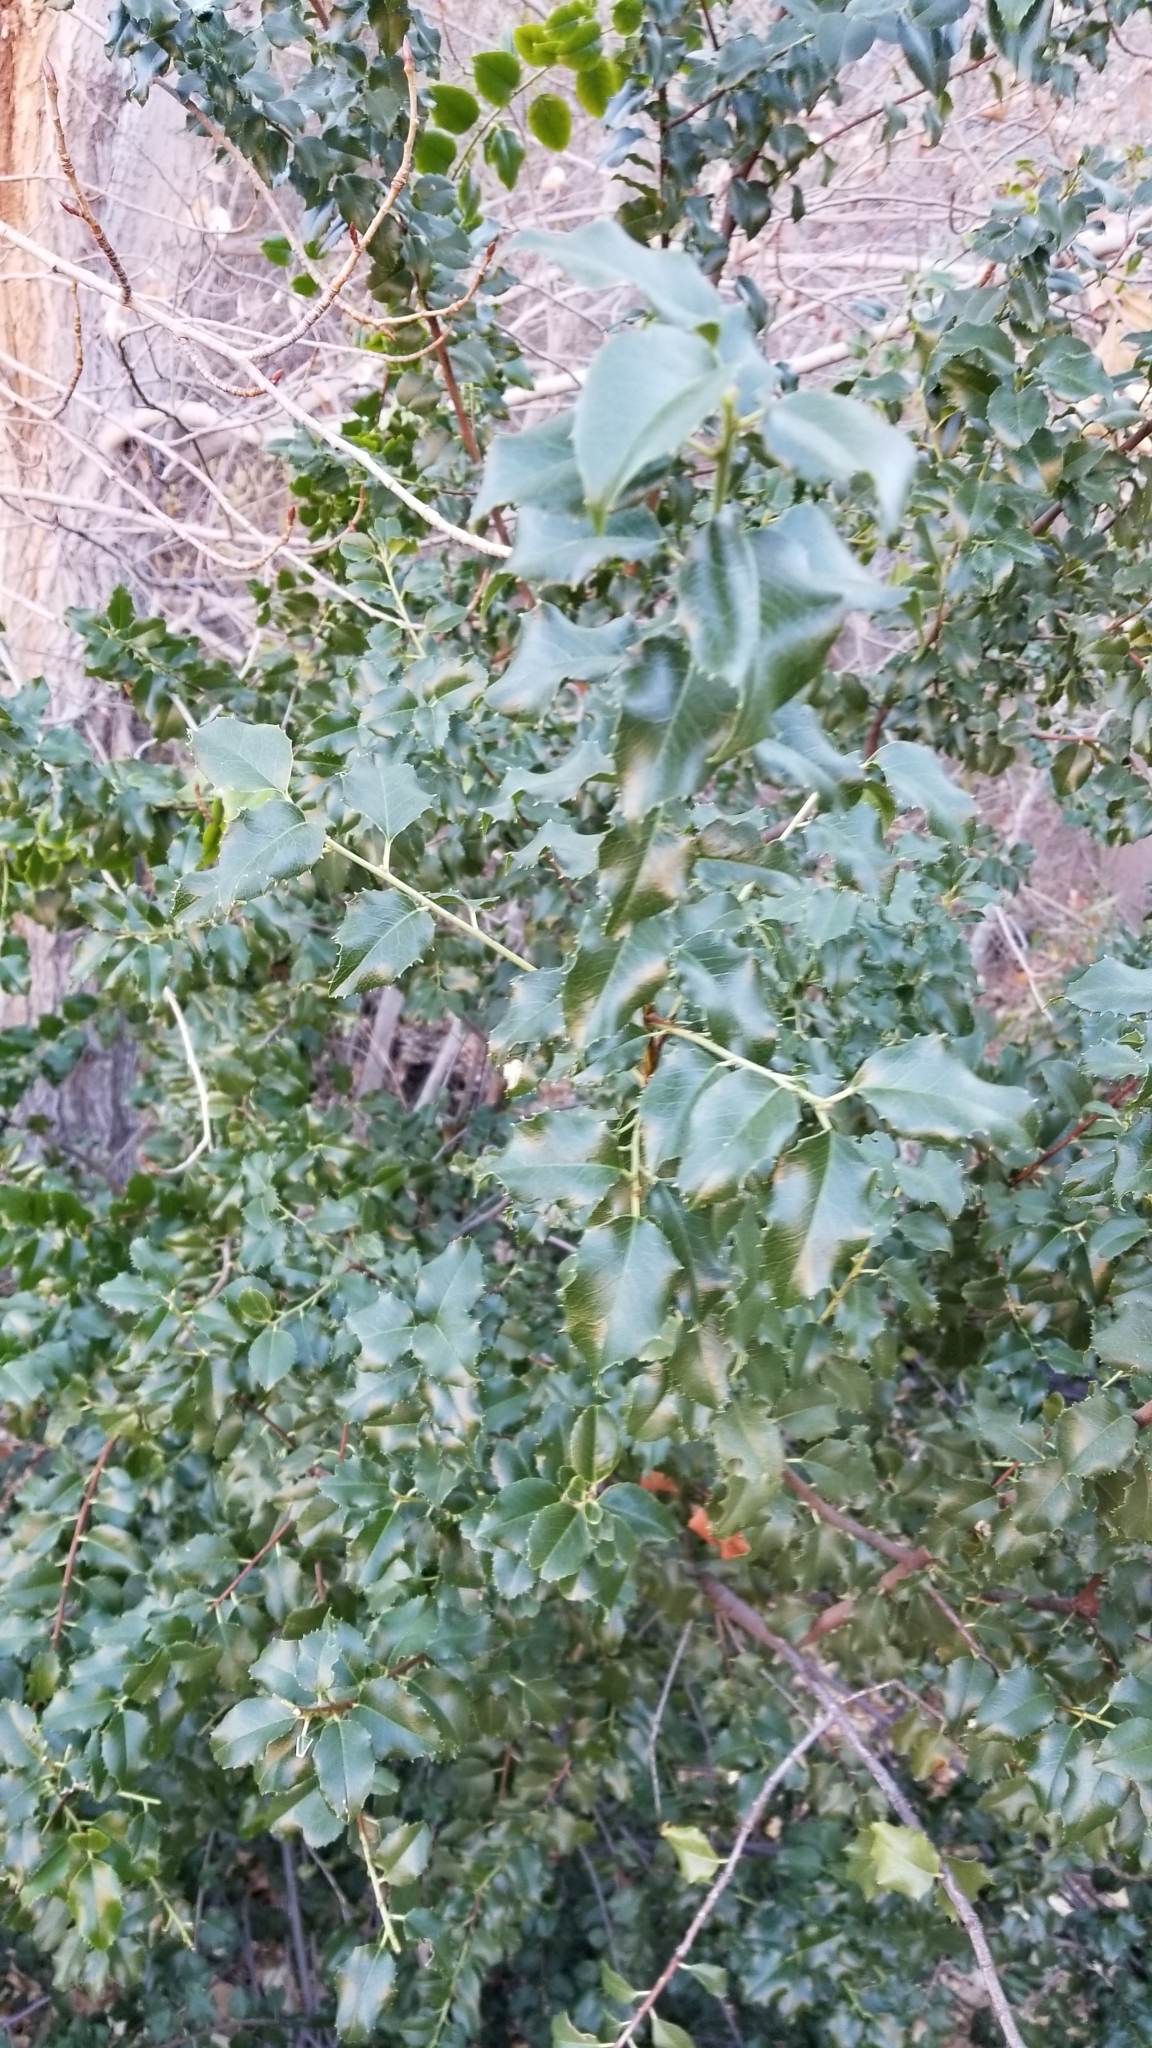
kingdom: Plantae
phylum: Tracheophyta
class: Magnoliopsida
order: Rosales
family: Rosaceae
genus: Prunus
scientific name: Prunus ilicifolia
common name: Hollyleaf cherry
